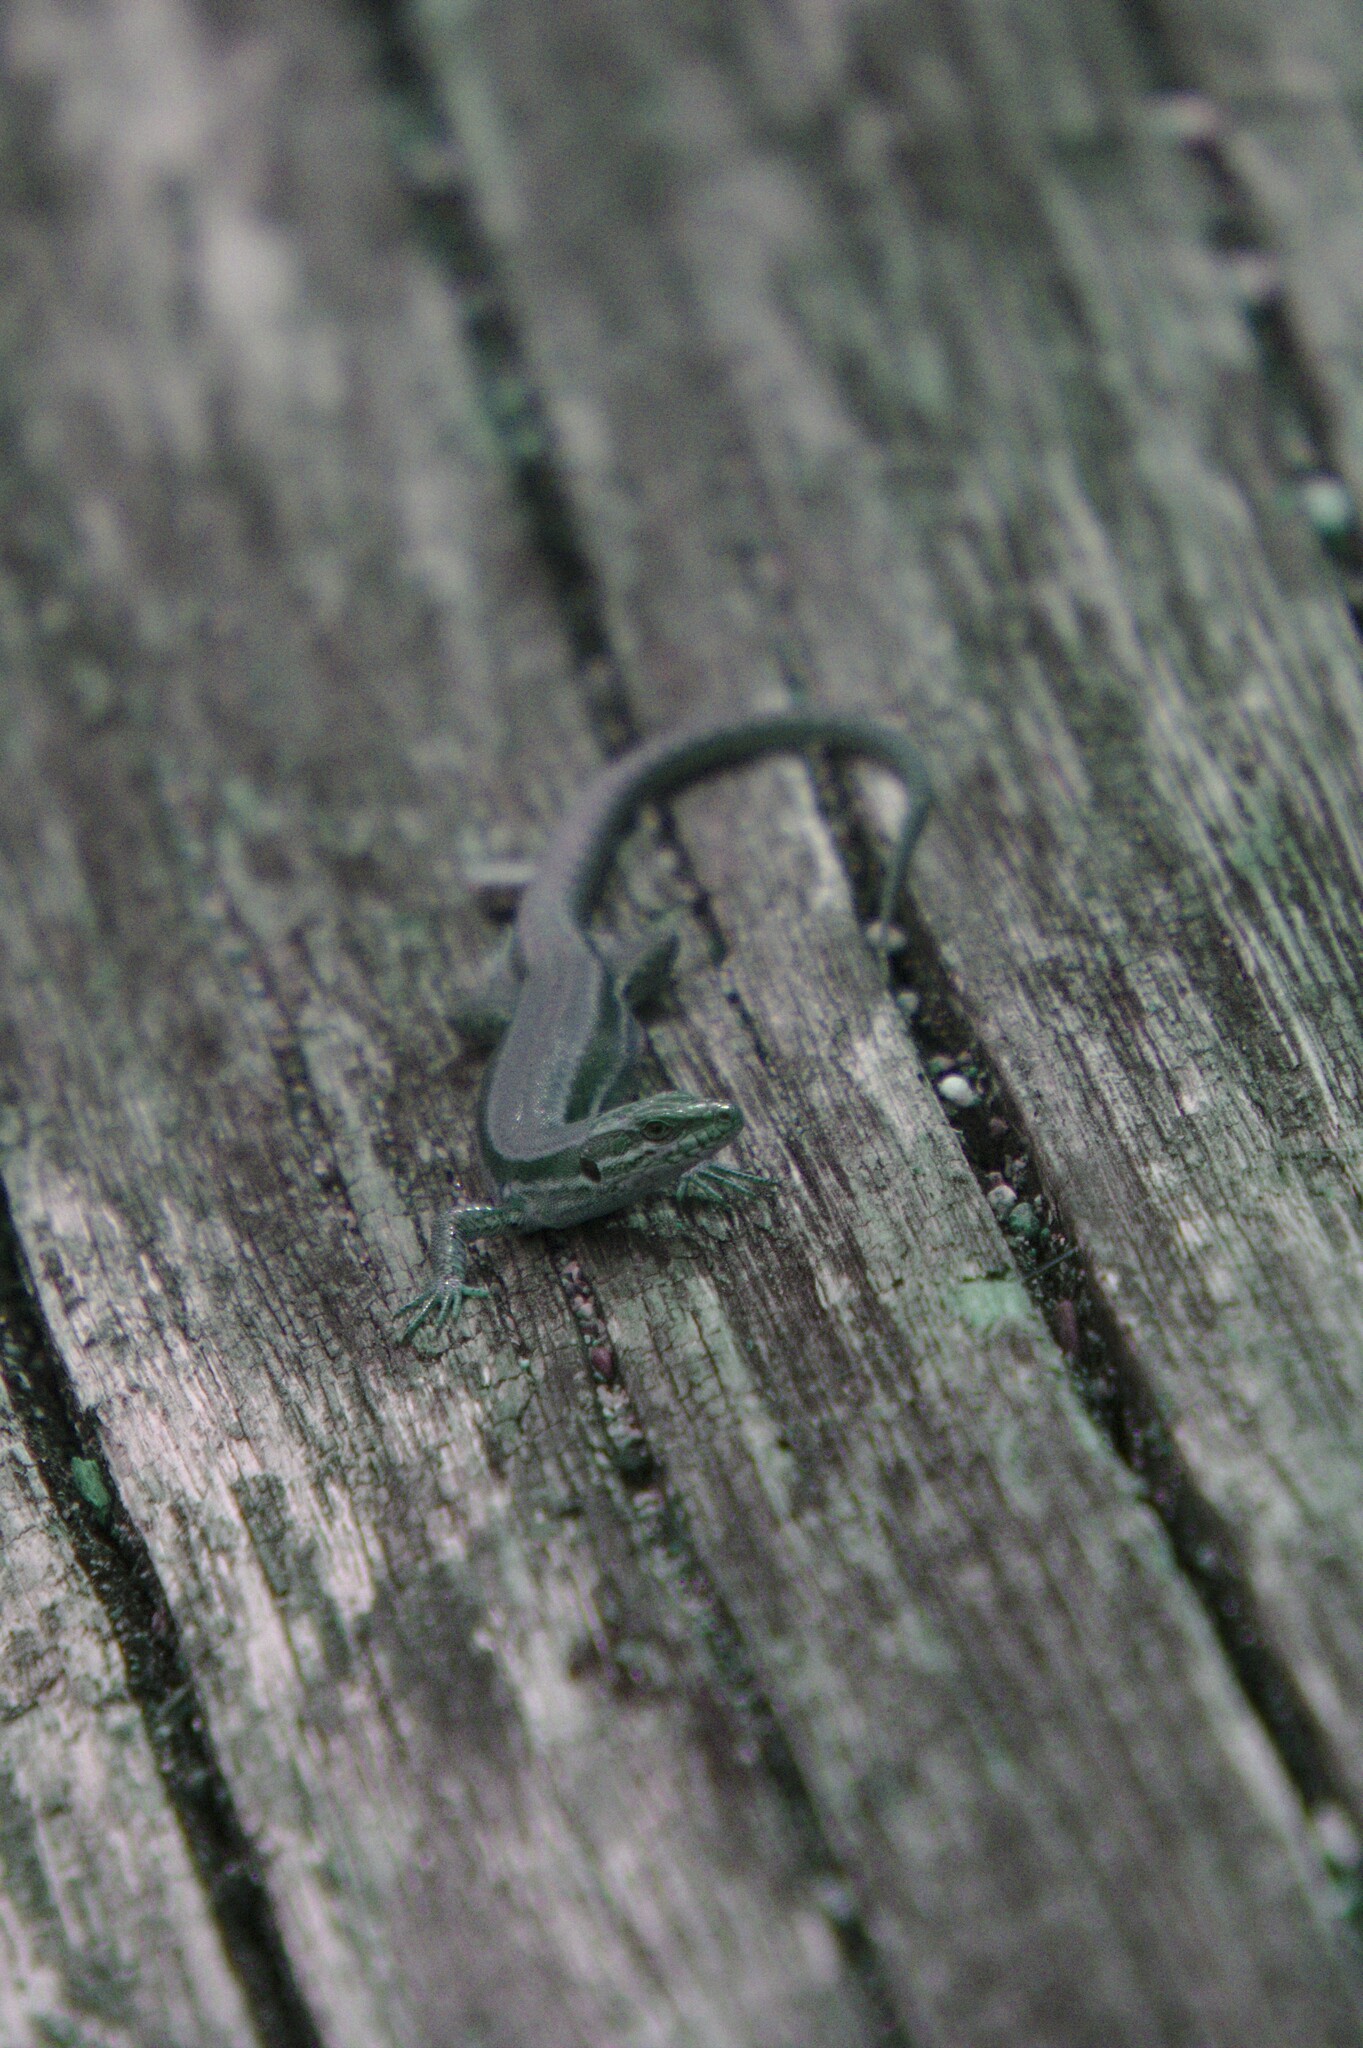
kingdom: Animalia
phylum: Chordata
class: Squamata
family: Lacertidae
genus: Podarcis
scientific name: Podarcis muralis
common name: Common wall lizard
